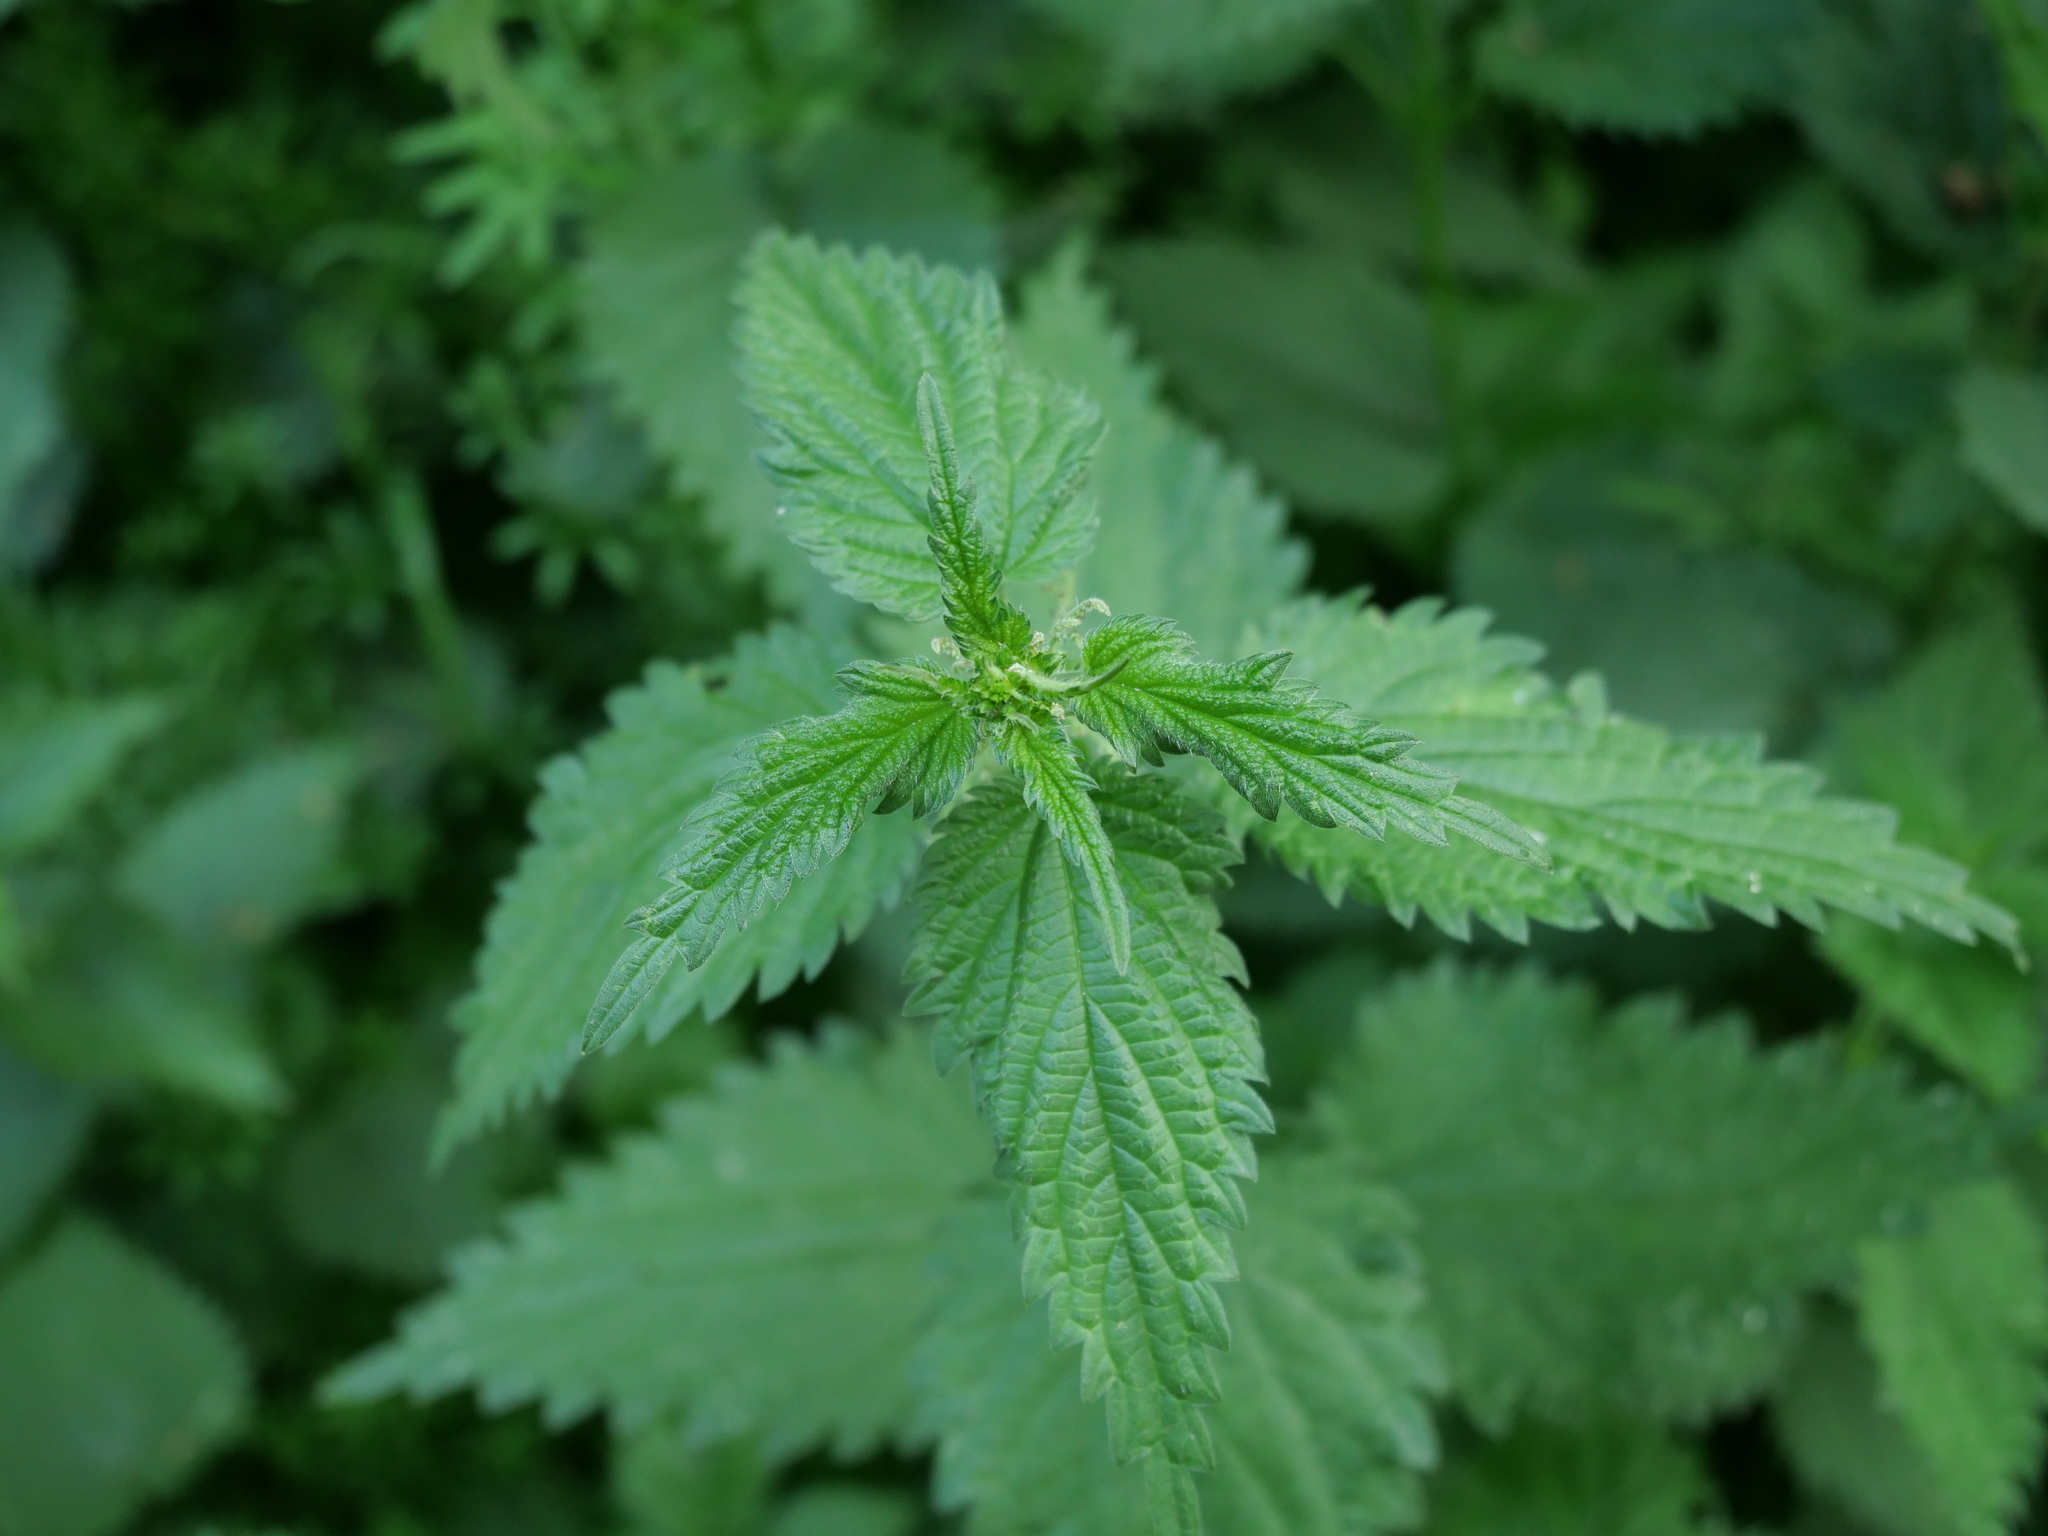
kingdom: Plantae
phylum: Tracheophyta
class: Magnoliopsida
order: Rosales
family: Urticaceae
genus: Urtica
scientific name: Urtica dioica
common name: Common nettle
